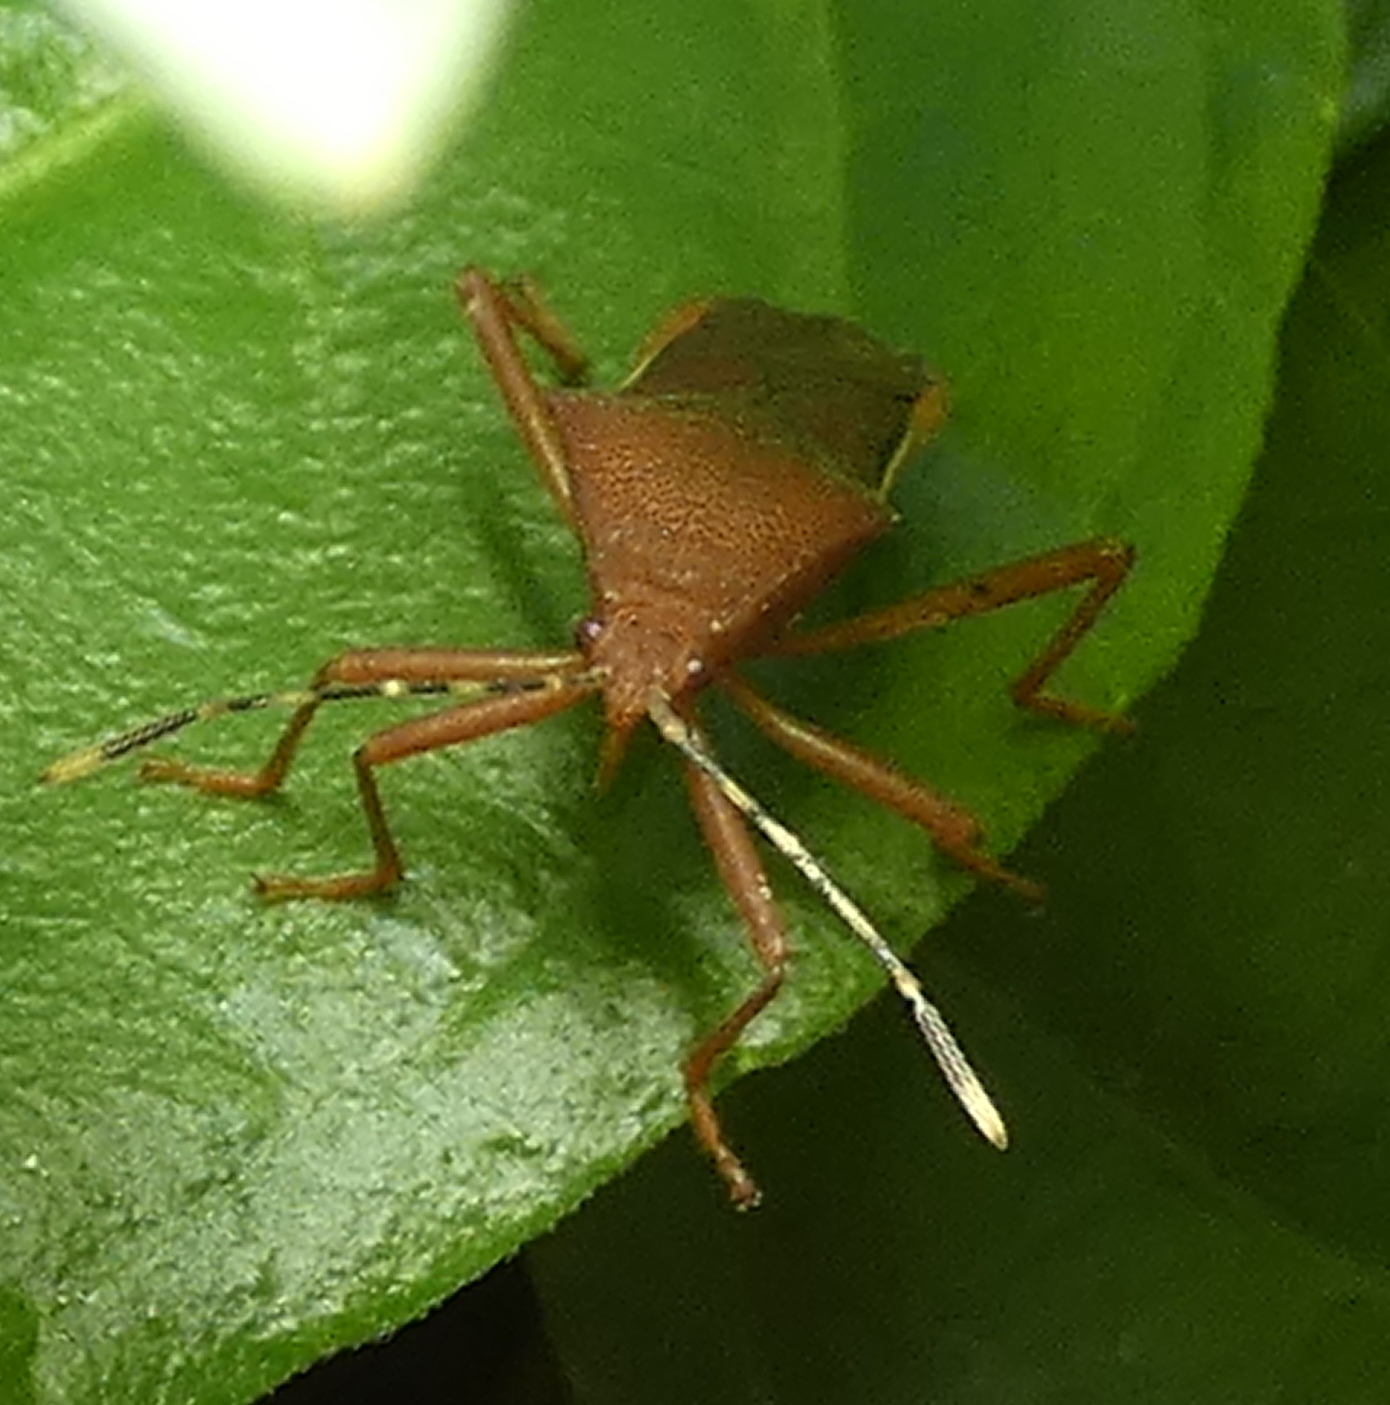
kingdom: Animalia
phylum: Arthropoda
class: Insecta
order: Hemiptera
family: Coreidae
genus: Anasa
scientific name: Anasa varicornis
